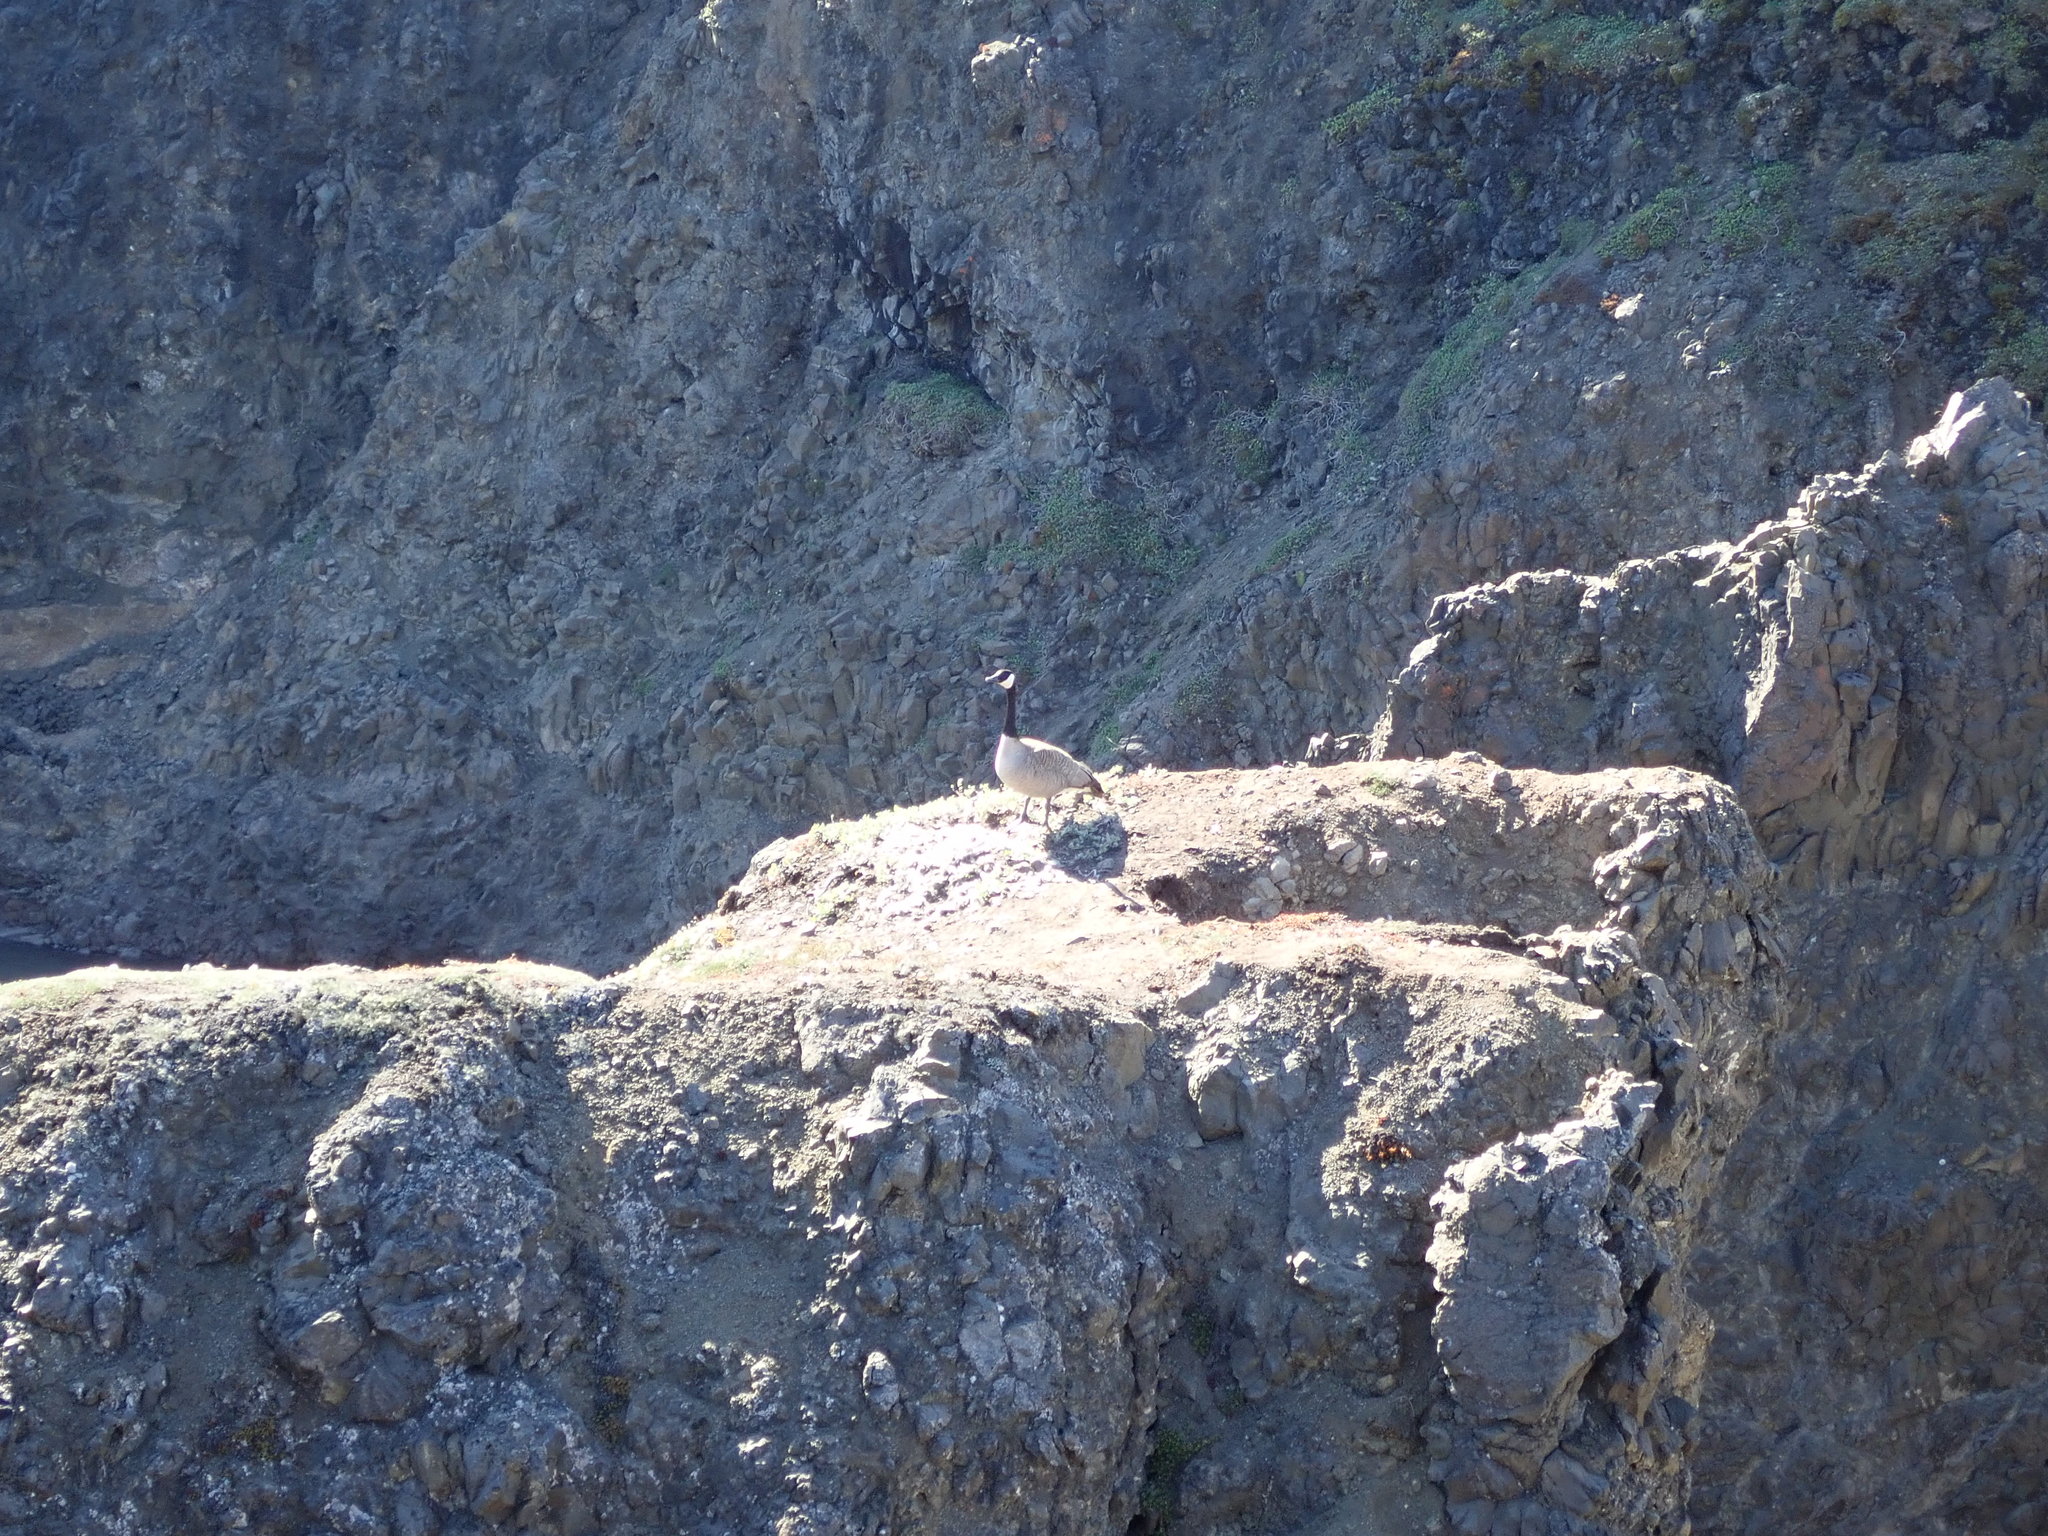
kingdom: Animalia
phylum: Chordata
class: Aves
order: Anseriformes
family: Anatidae
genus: Branta
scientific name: Branta canadensis
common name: Canada goose
